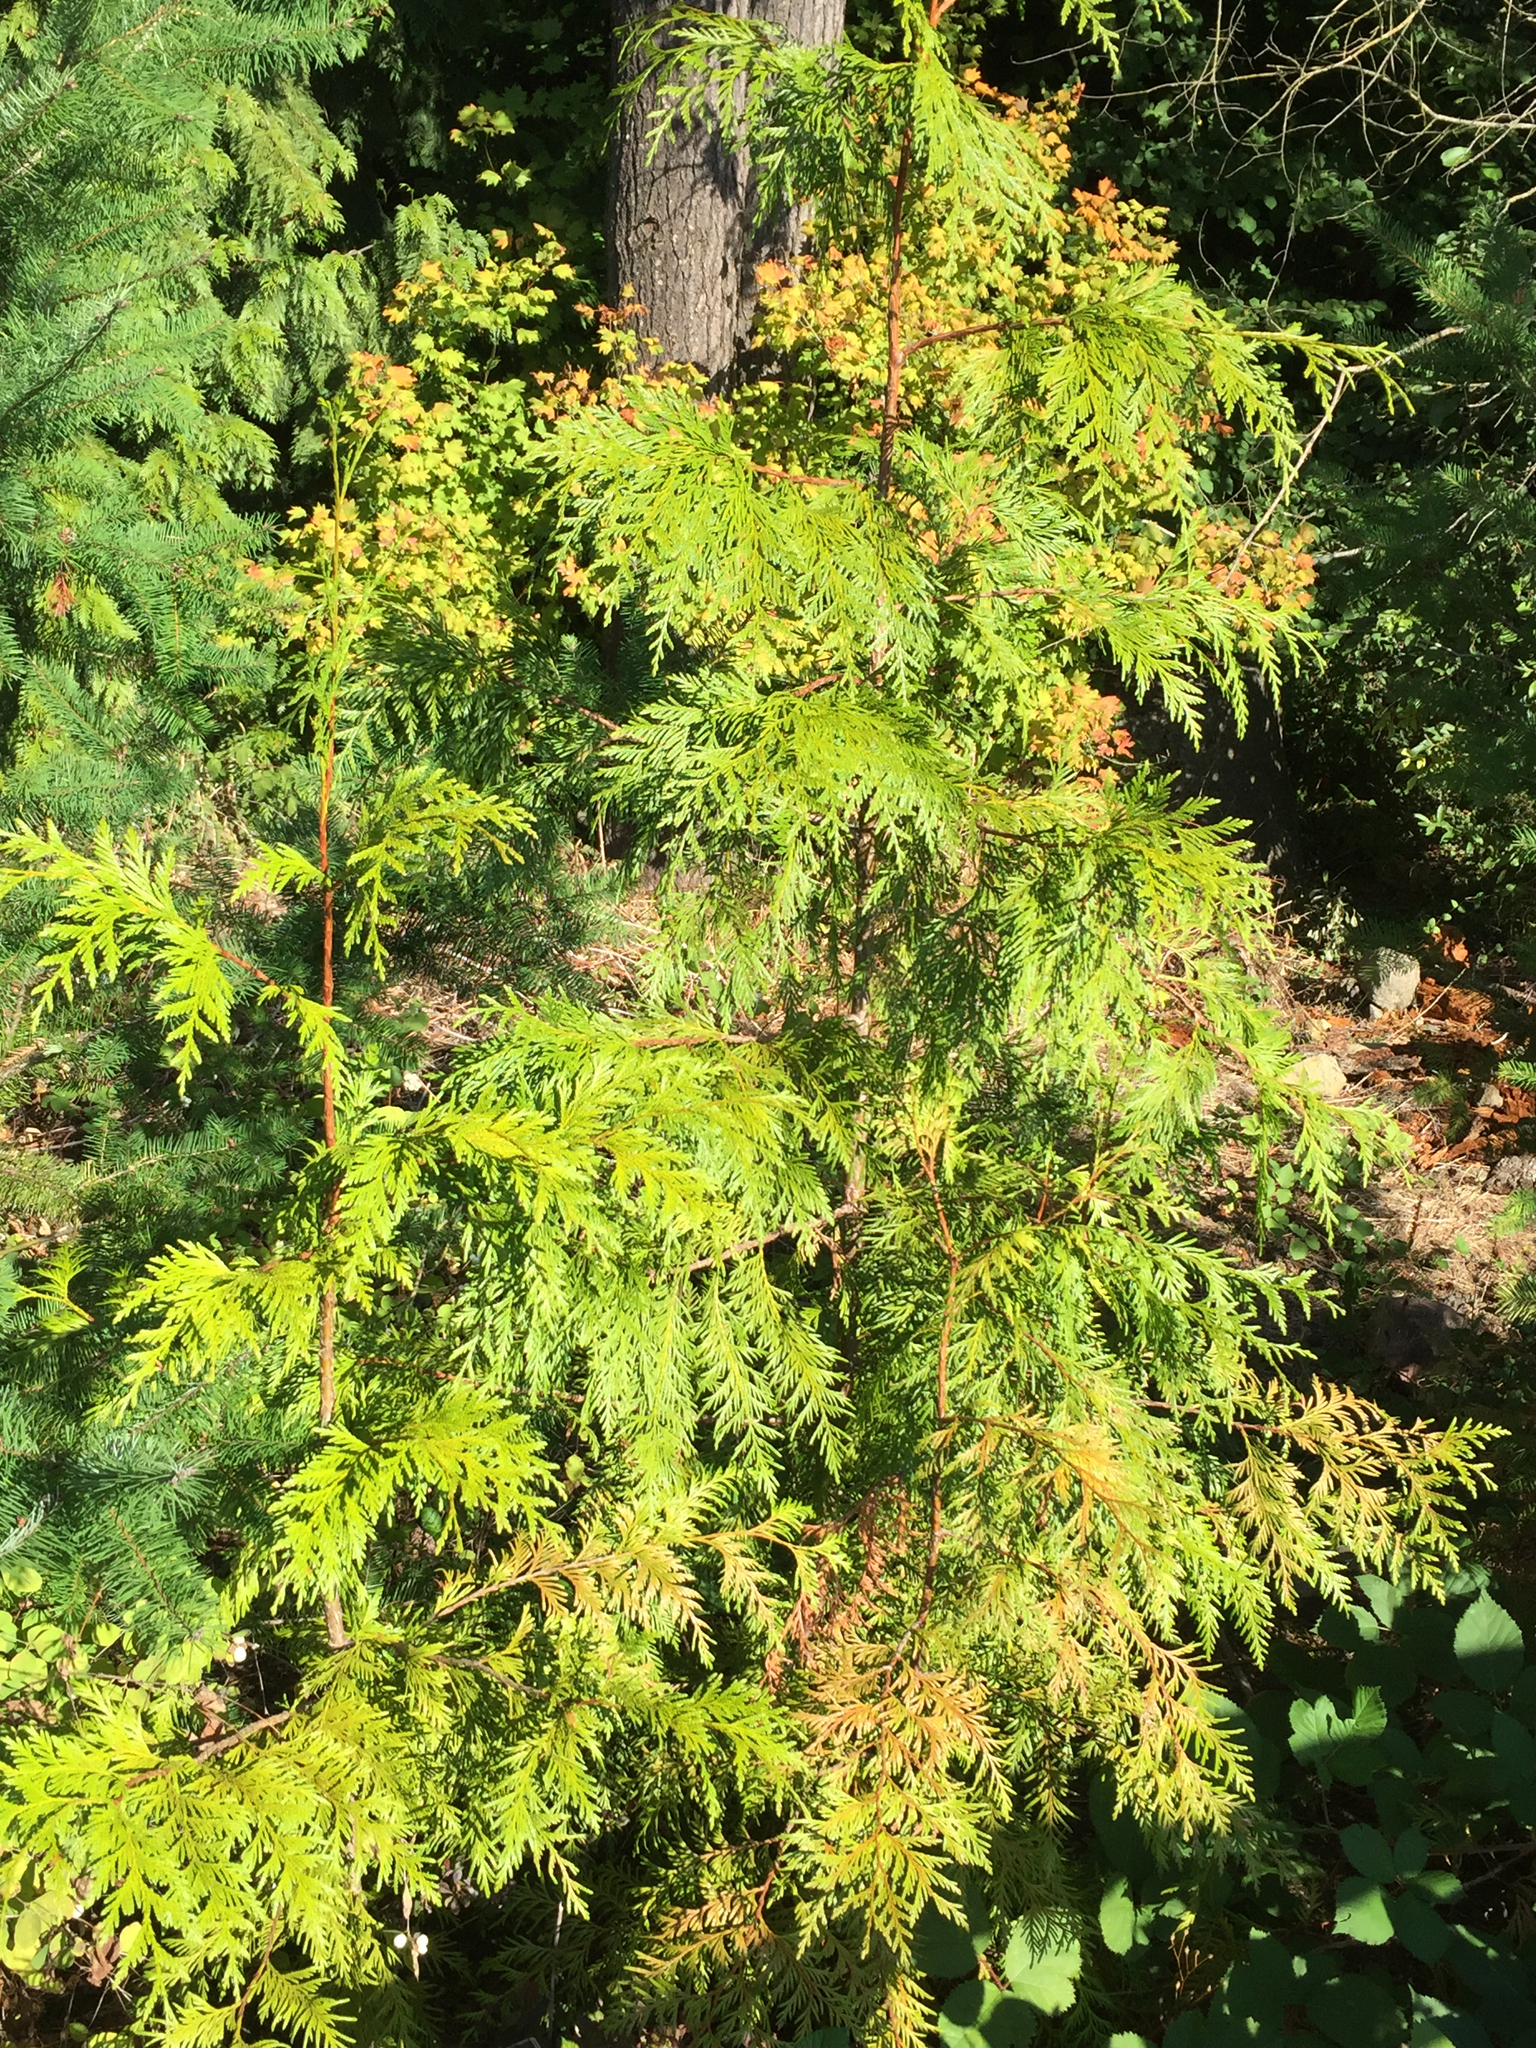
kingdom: Plantae
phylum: Tracheophyta
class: Pinopsida
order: Pinales
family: Cupressaceae
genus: Thuja
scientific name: Thuja plicata
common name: Western red-cedar
